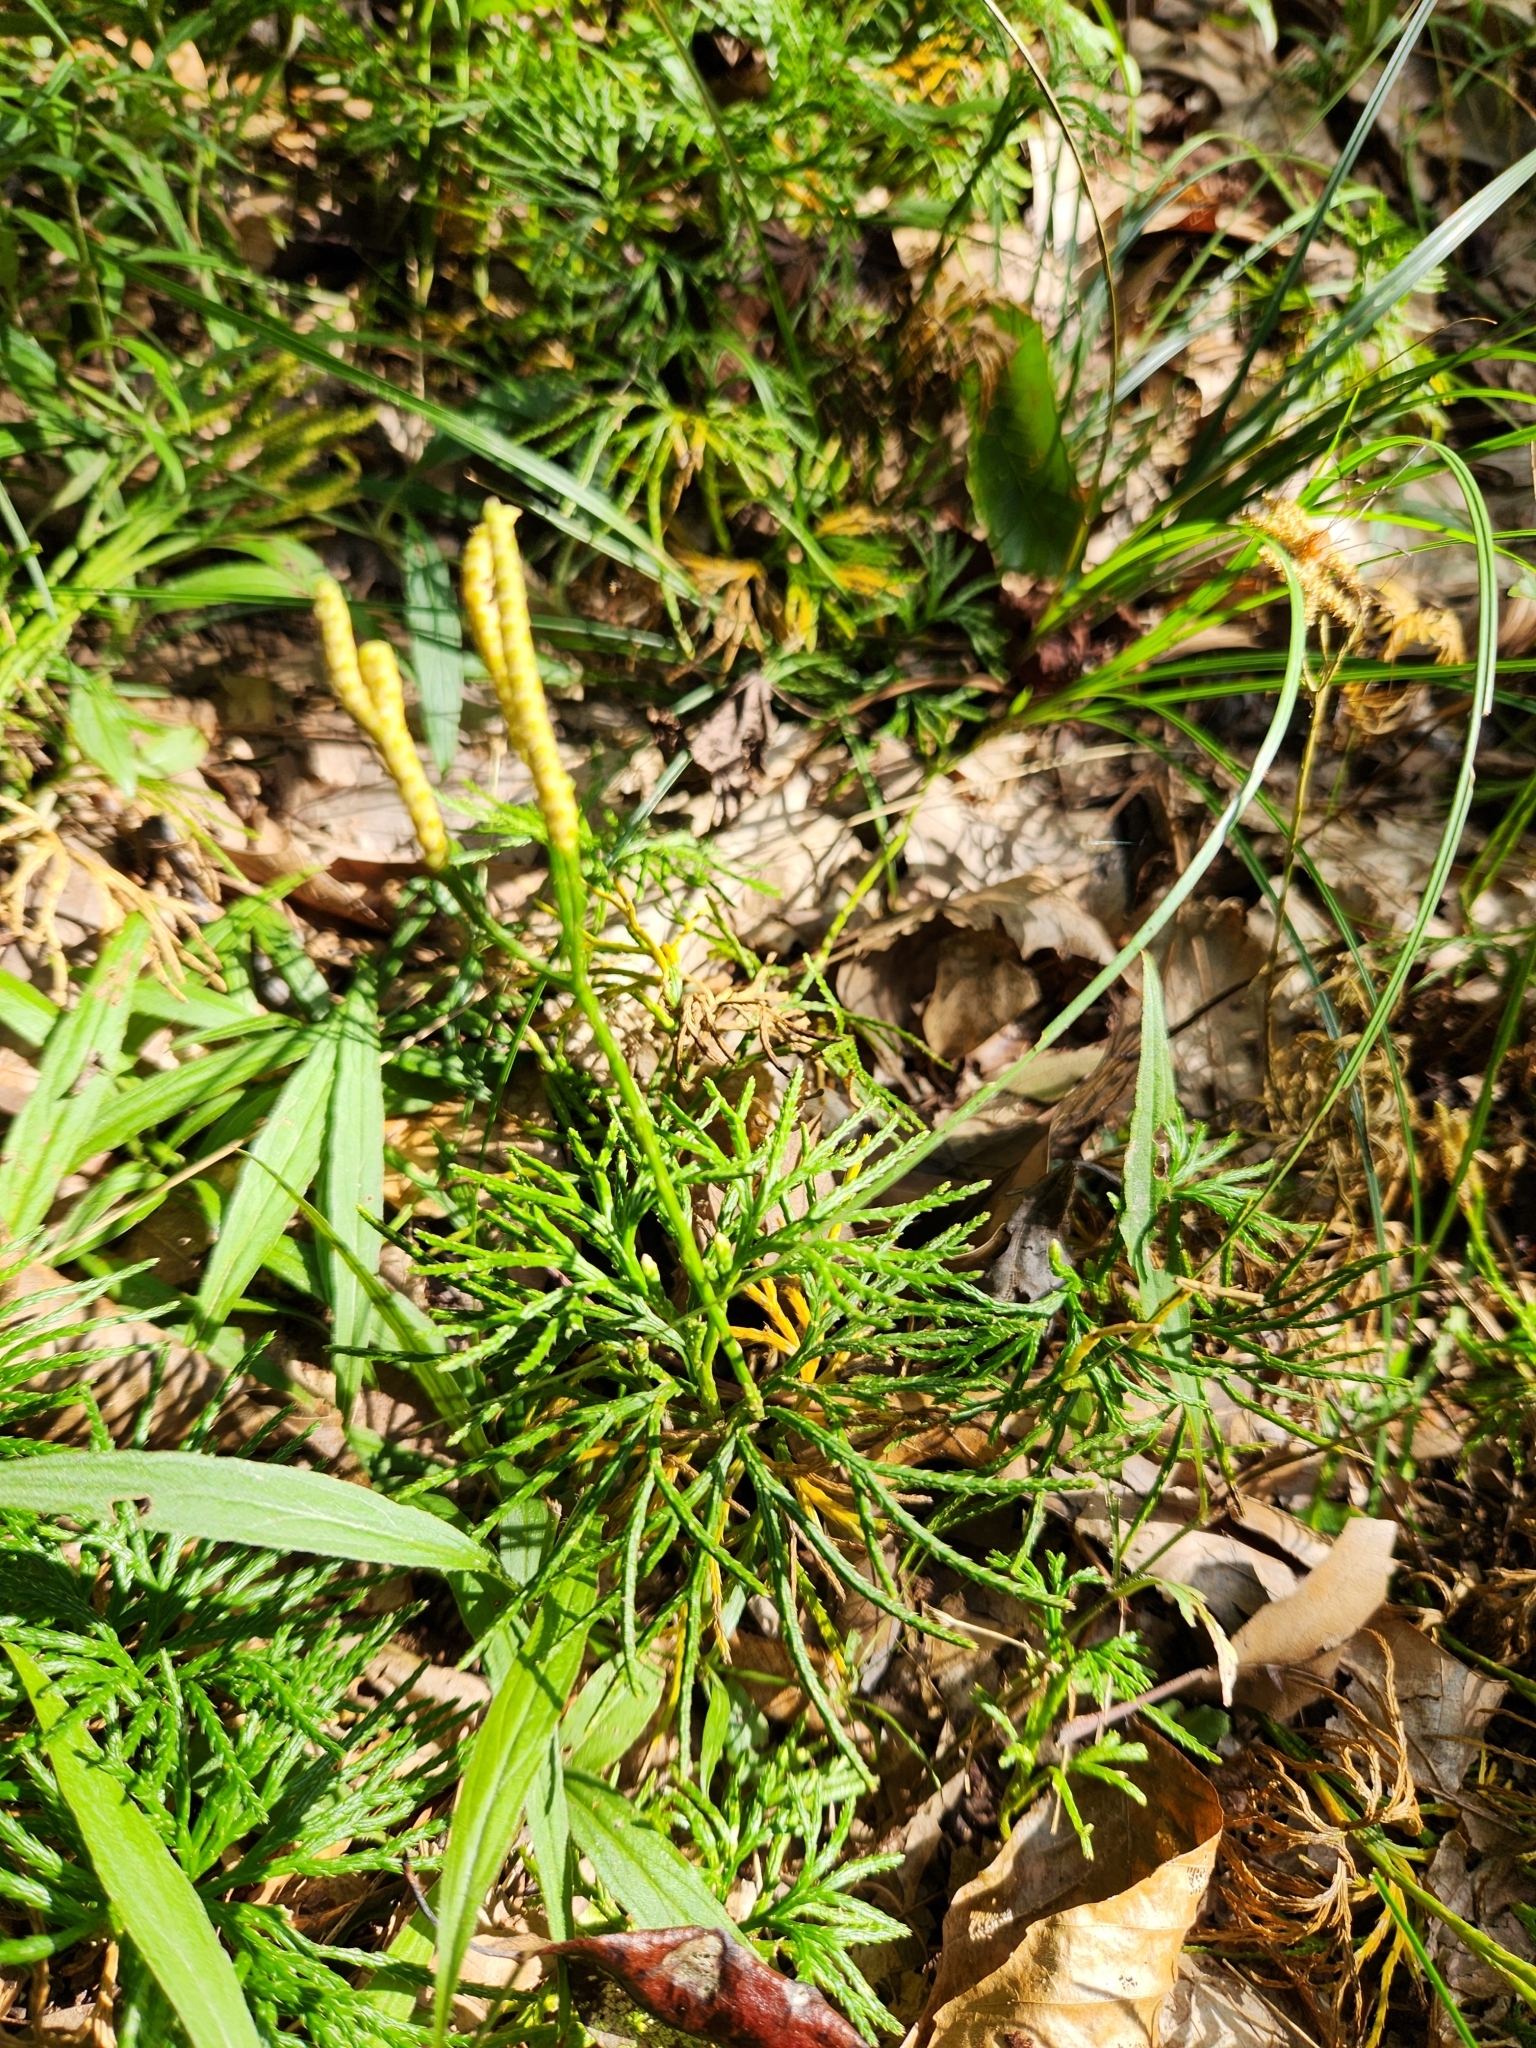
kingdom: Plantae
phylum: Tracheophyta
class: Lycopodiopsida
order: Lycopodiales
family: Lycopodiaceae
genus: Diphasiastrum
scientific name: Diphasiastrum digitatum
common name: Southern running-pine
